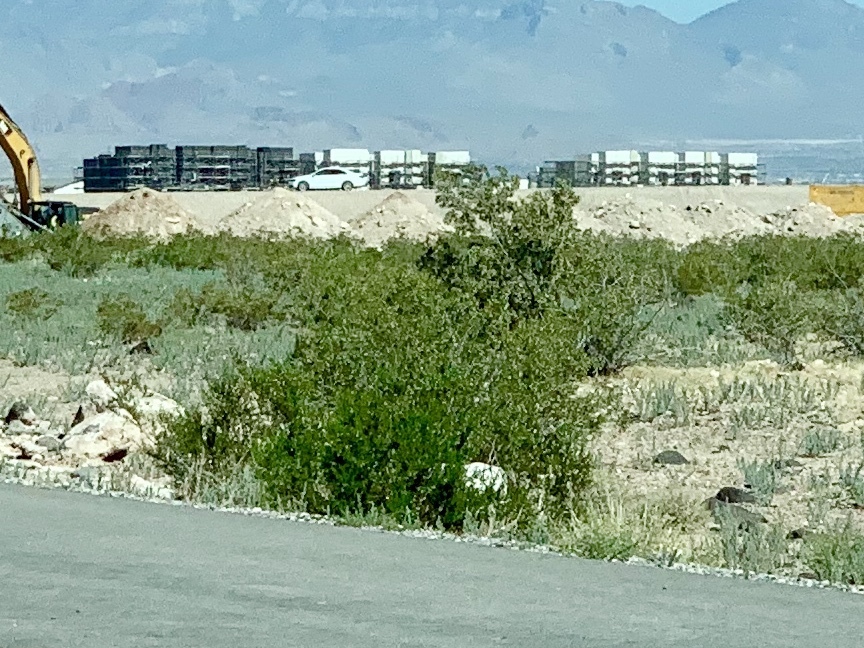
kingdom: Plantae
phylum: Tracheophyta
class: Magnoliopsida
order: Zygophyllales
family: Zygophyllaceae
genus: Larrea
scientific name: Larrea tridentata
